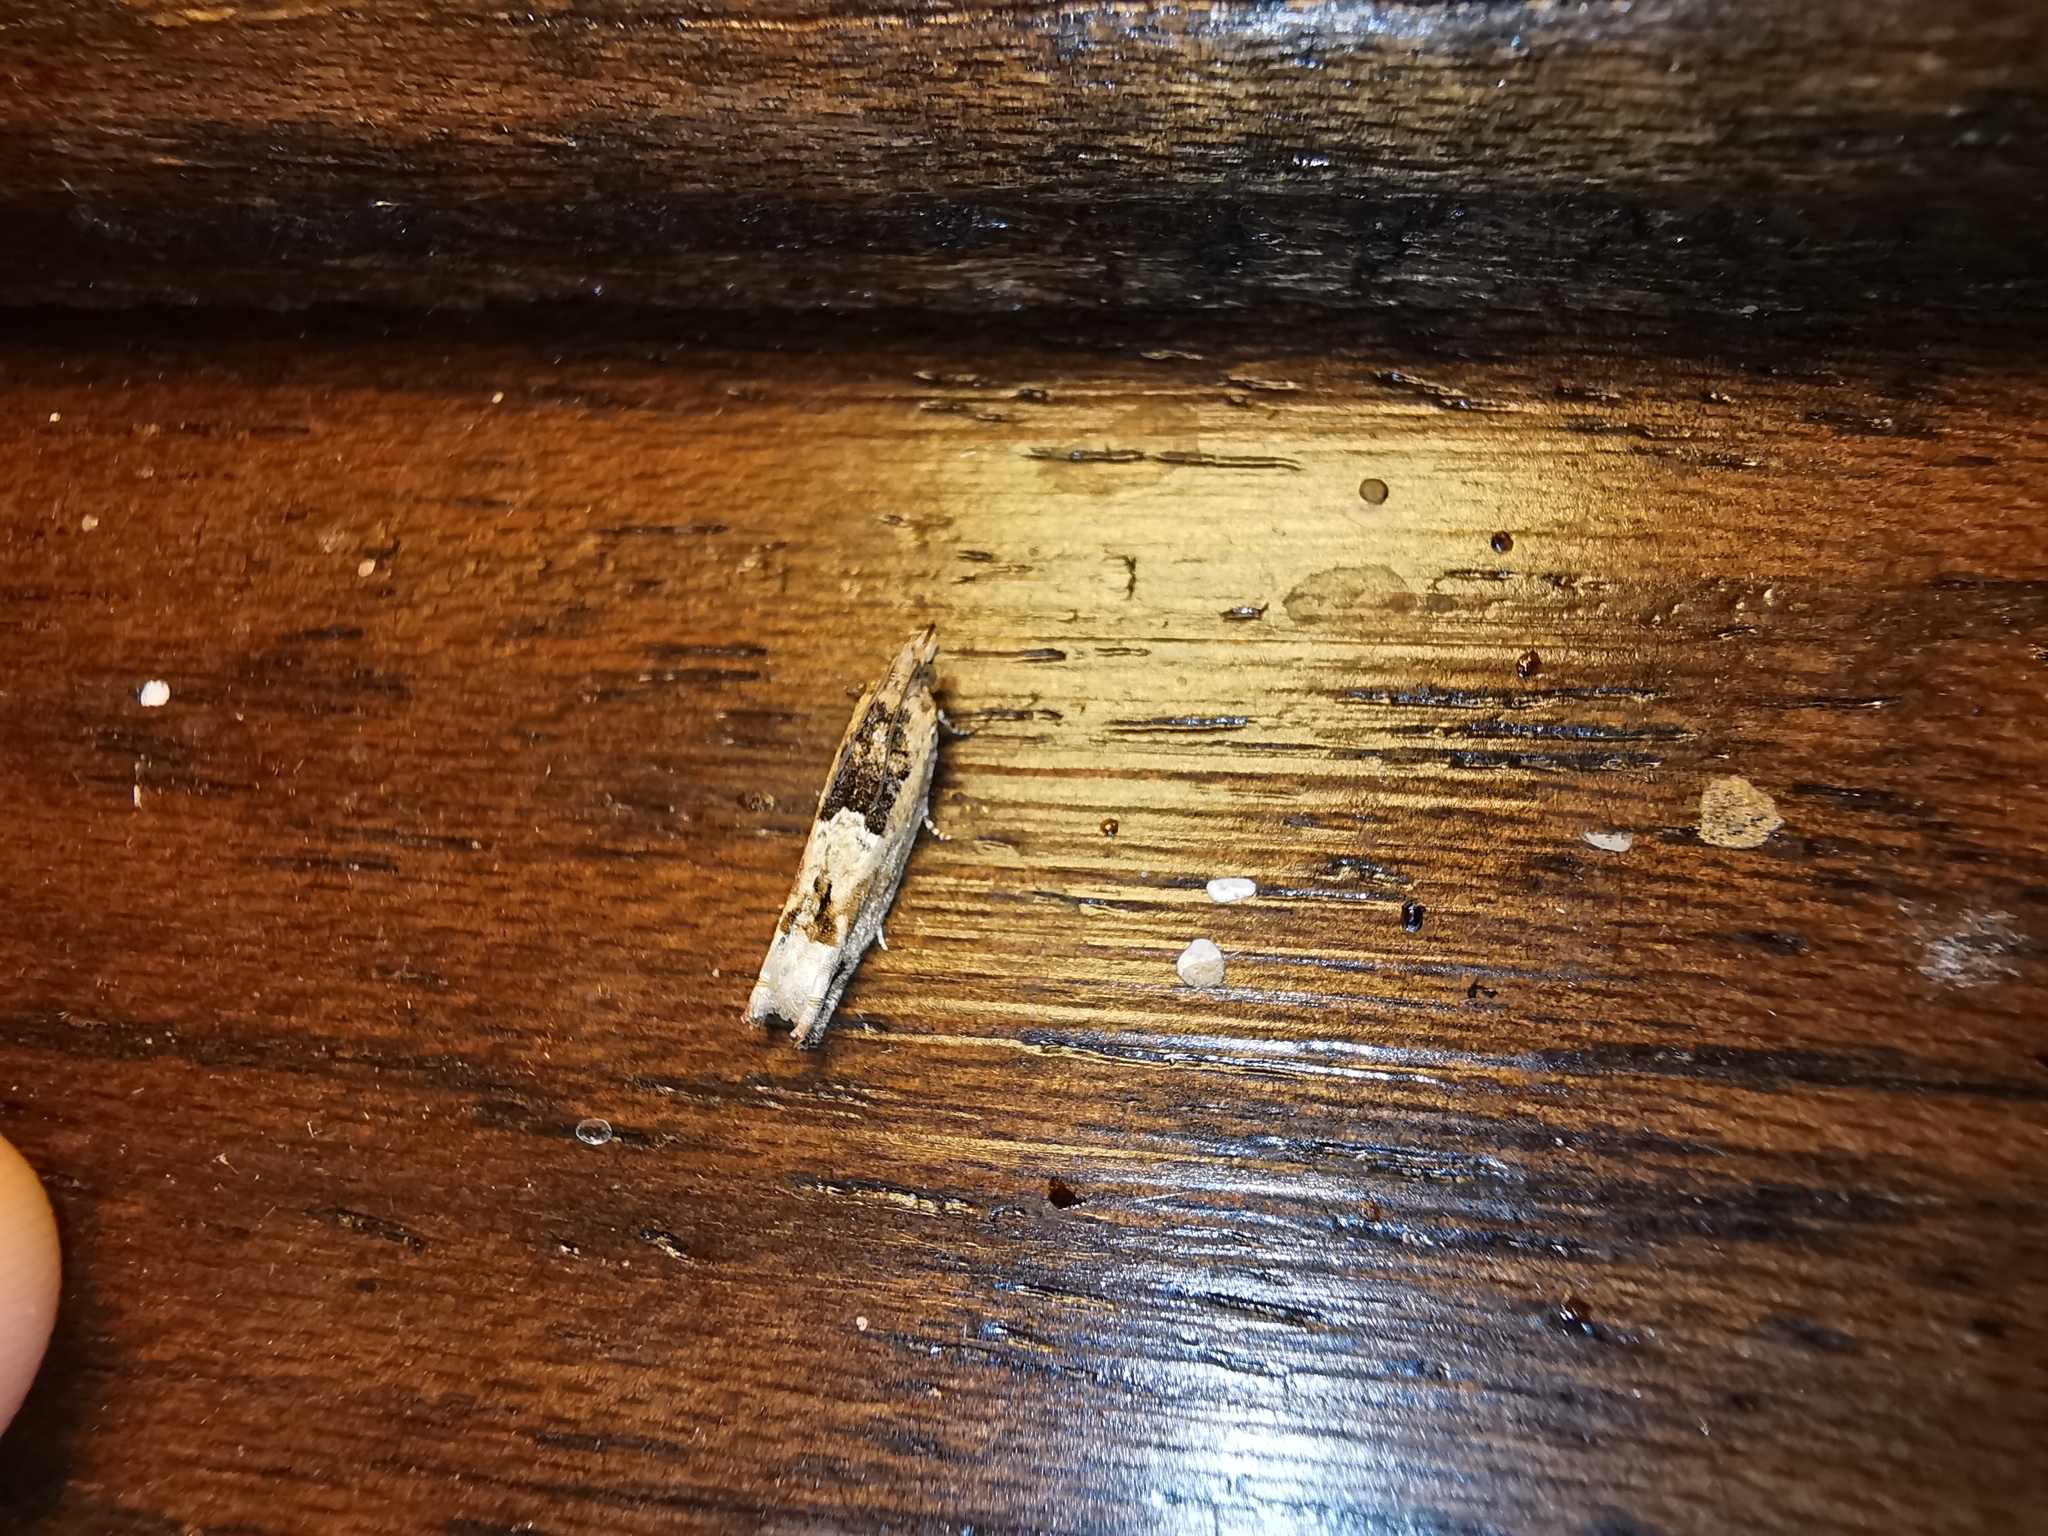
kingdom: Animalia
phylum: Arthropoda
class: Insecta
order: Lepidoptera
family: Tortricidae
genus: Crocidosema
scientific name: Crocidosema plebejana
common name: Southern bell
